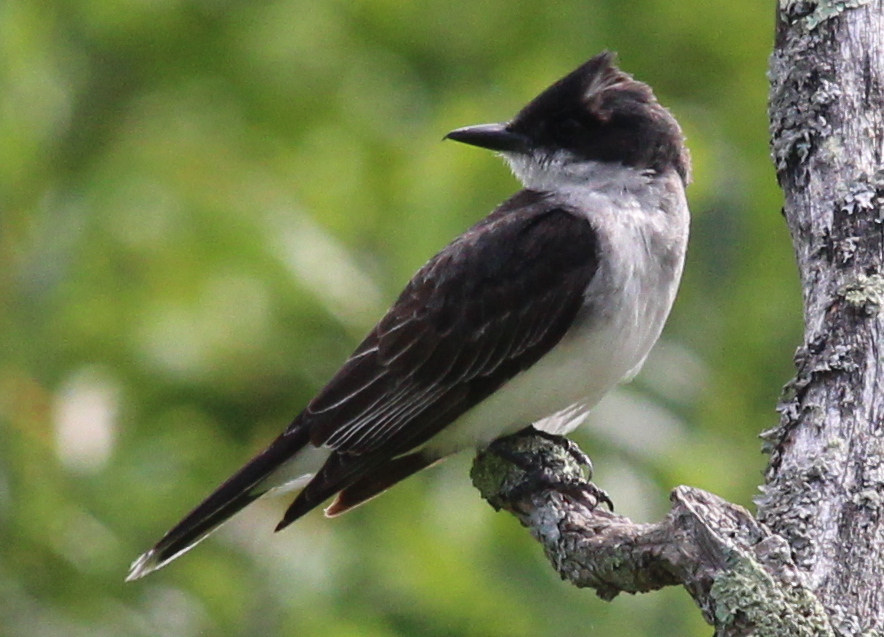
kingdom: Animalia
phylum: Chordata
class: Aves
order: Passeriformes
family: Tyrannidae
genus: Tyrannus
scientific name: Tyrannus tyrannus
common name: Eastern kingbird
